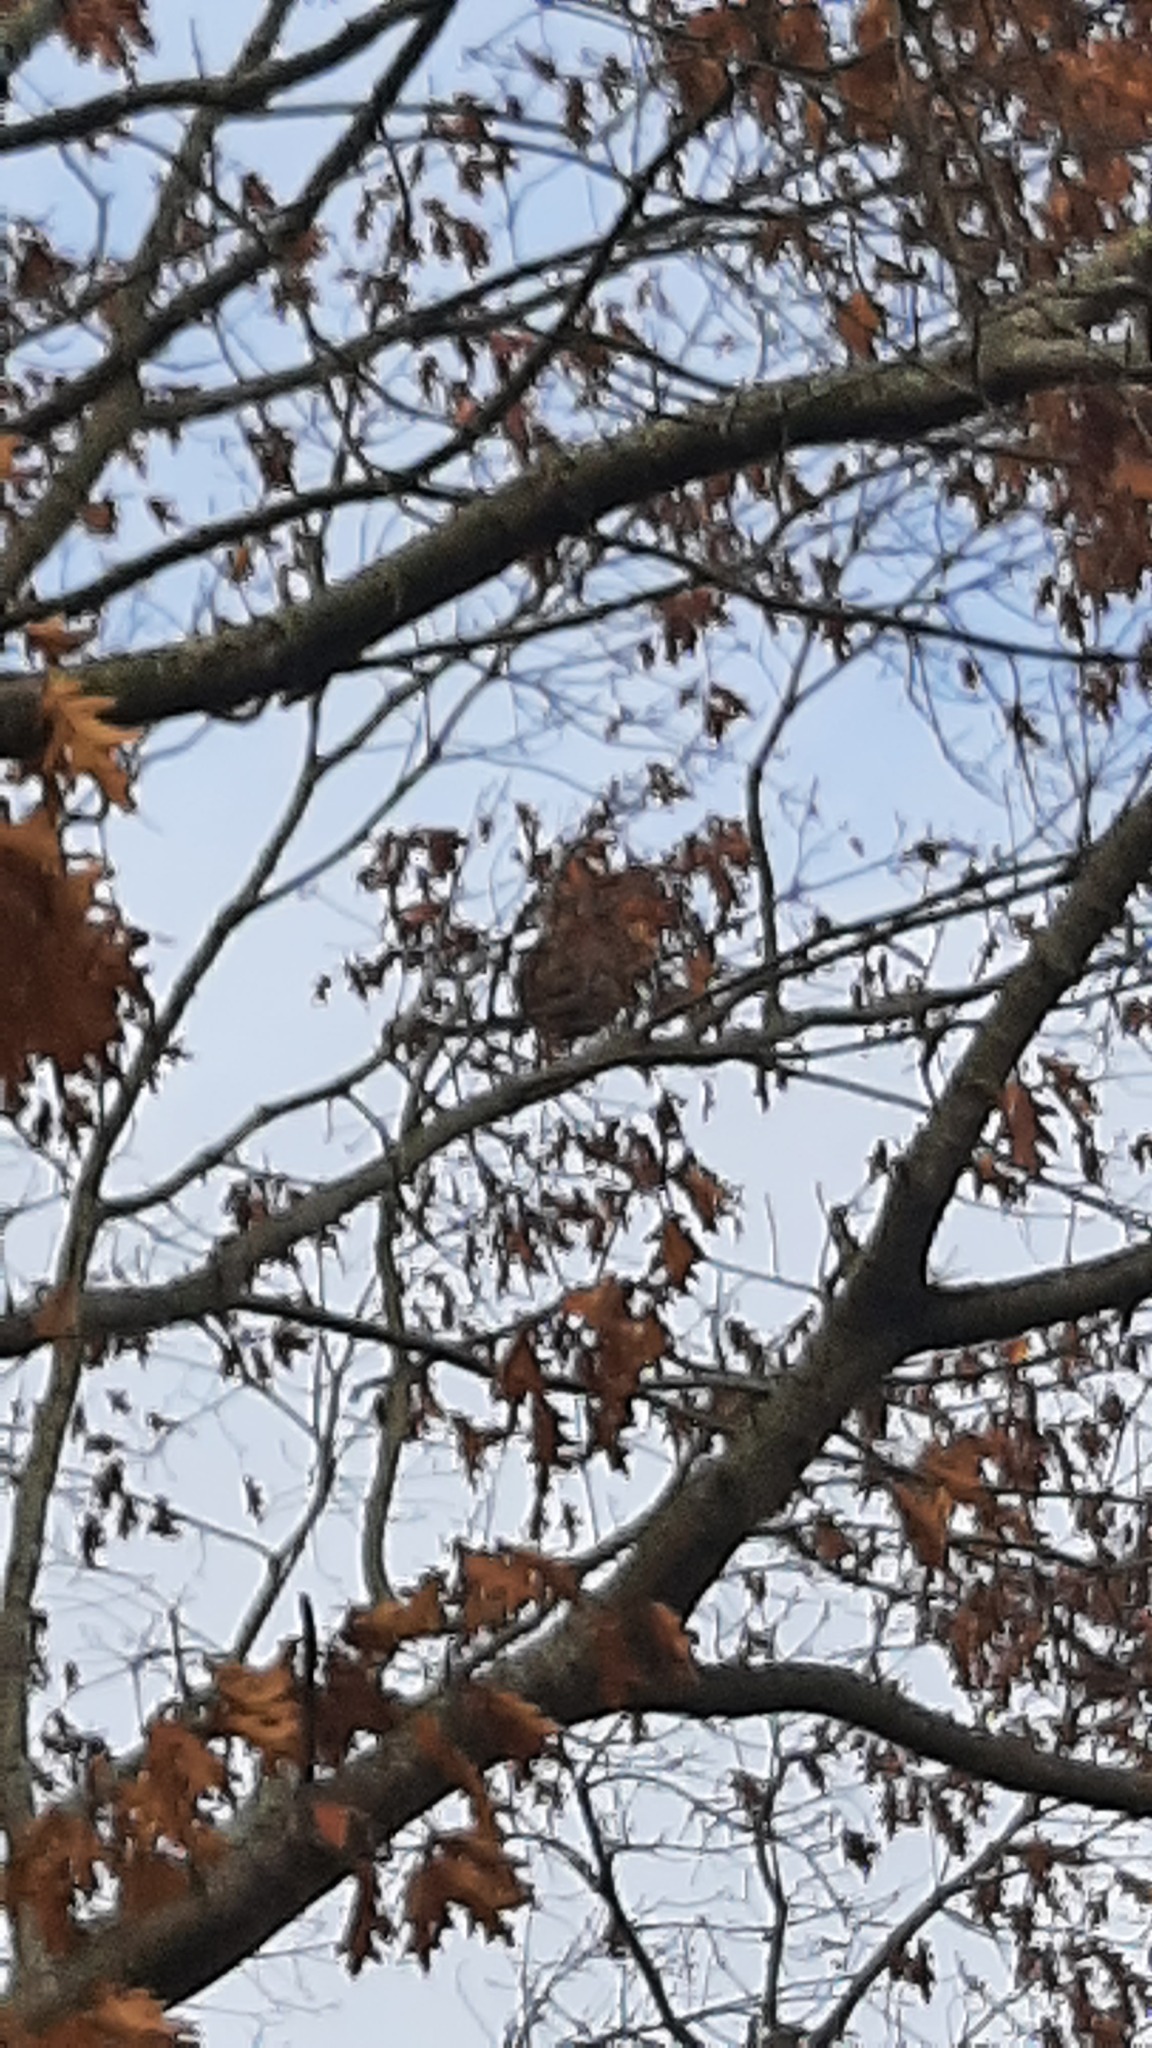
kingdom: Animalia
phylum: Arthropoda
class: Insecta
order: Hymenoptera
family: Vespidae
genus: Vespa
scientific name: Vespa velutina
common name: Asian hornet
